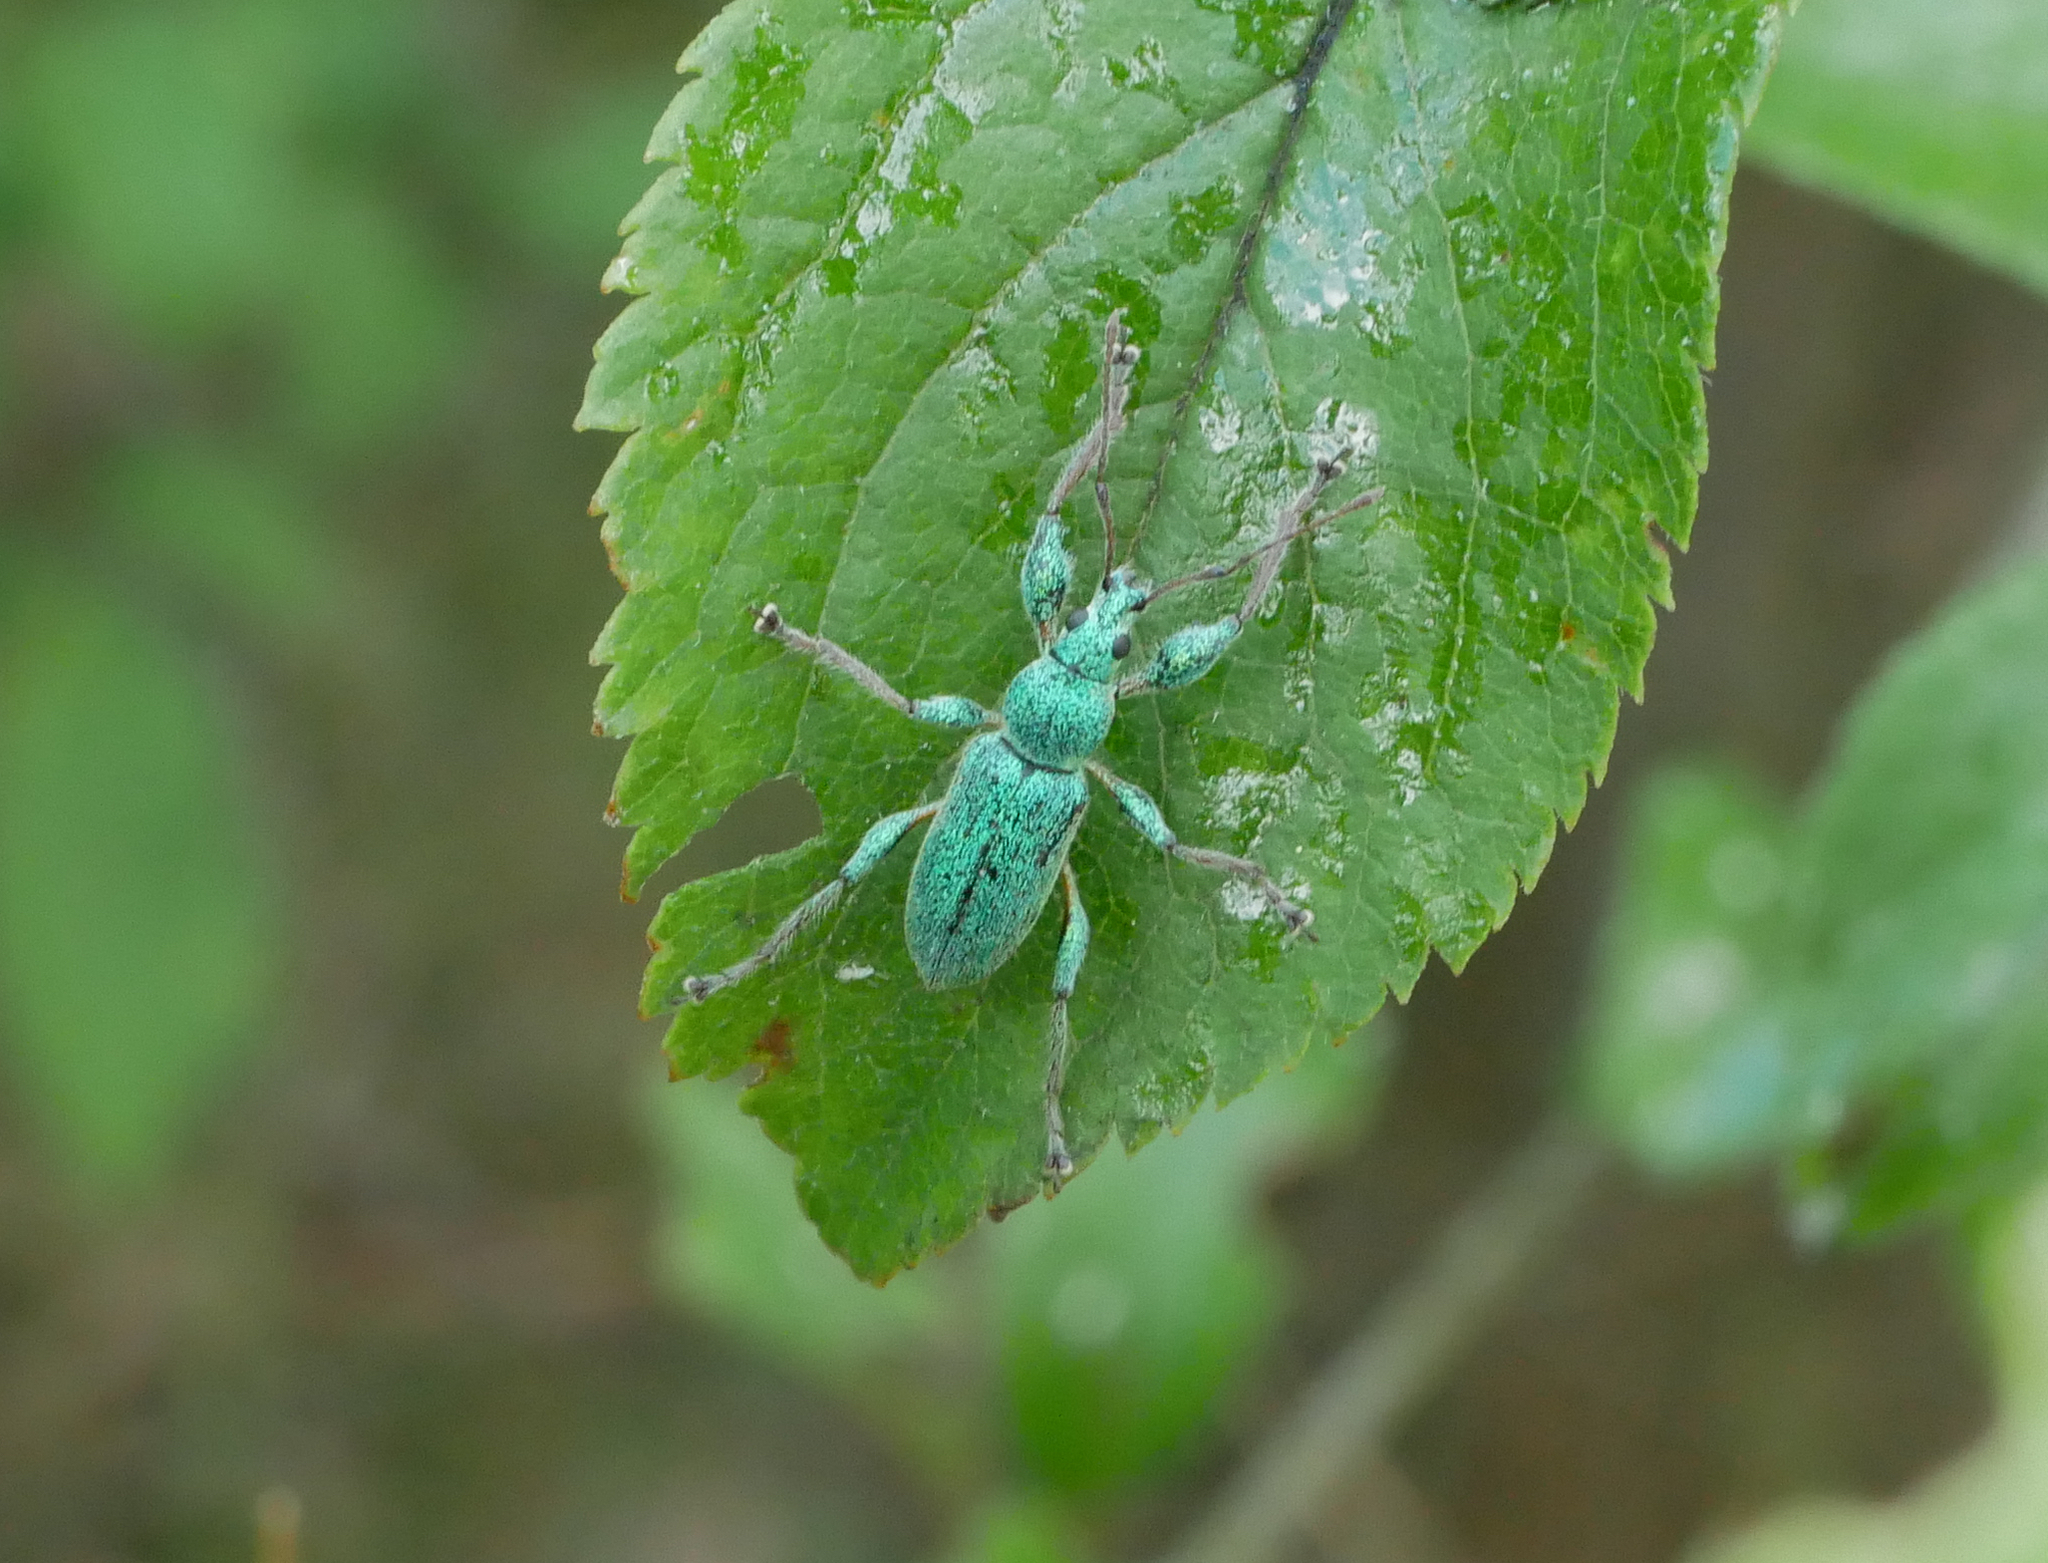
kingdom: Animalia
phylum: Arthropoda
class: Insecta
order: Coleoptera
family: Curculionidae
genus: Phyllobius
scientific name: Phyllobius arborator
